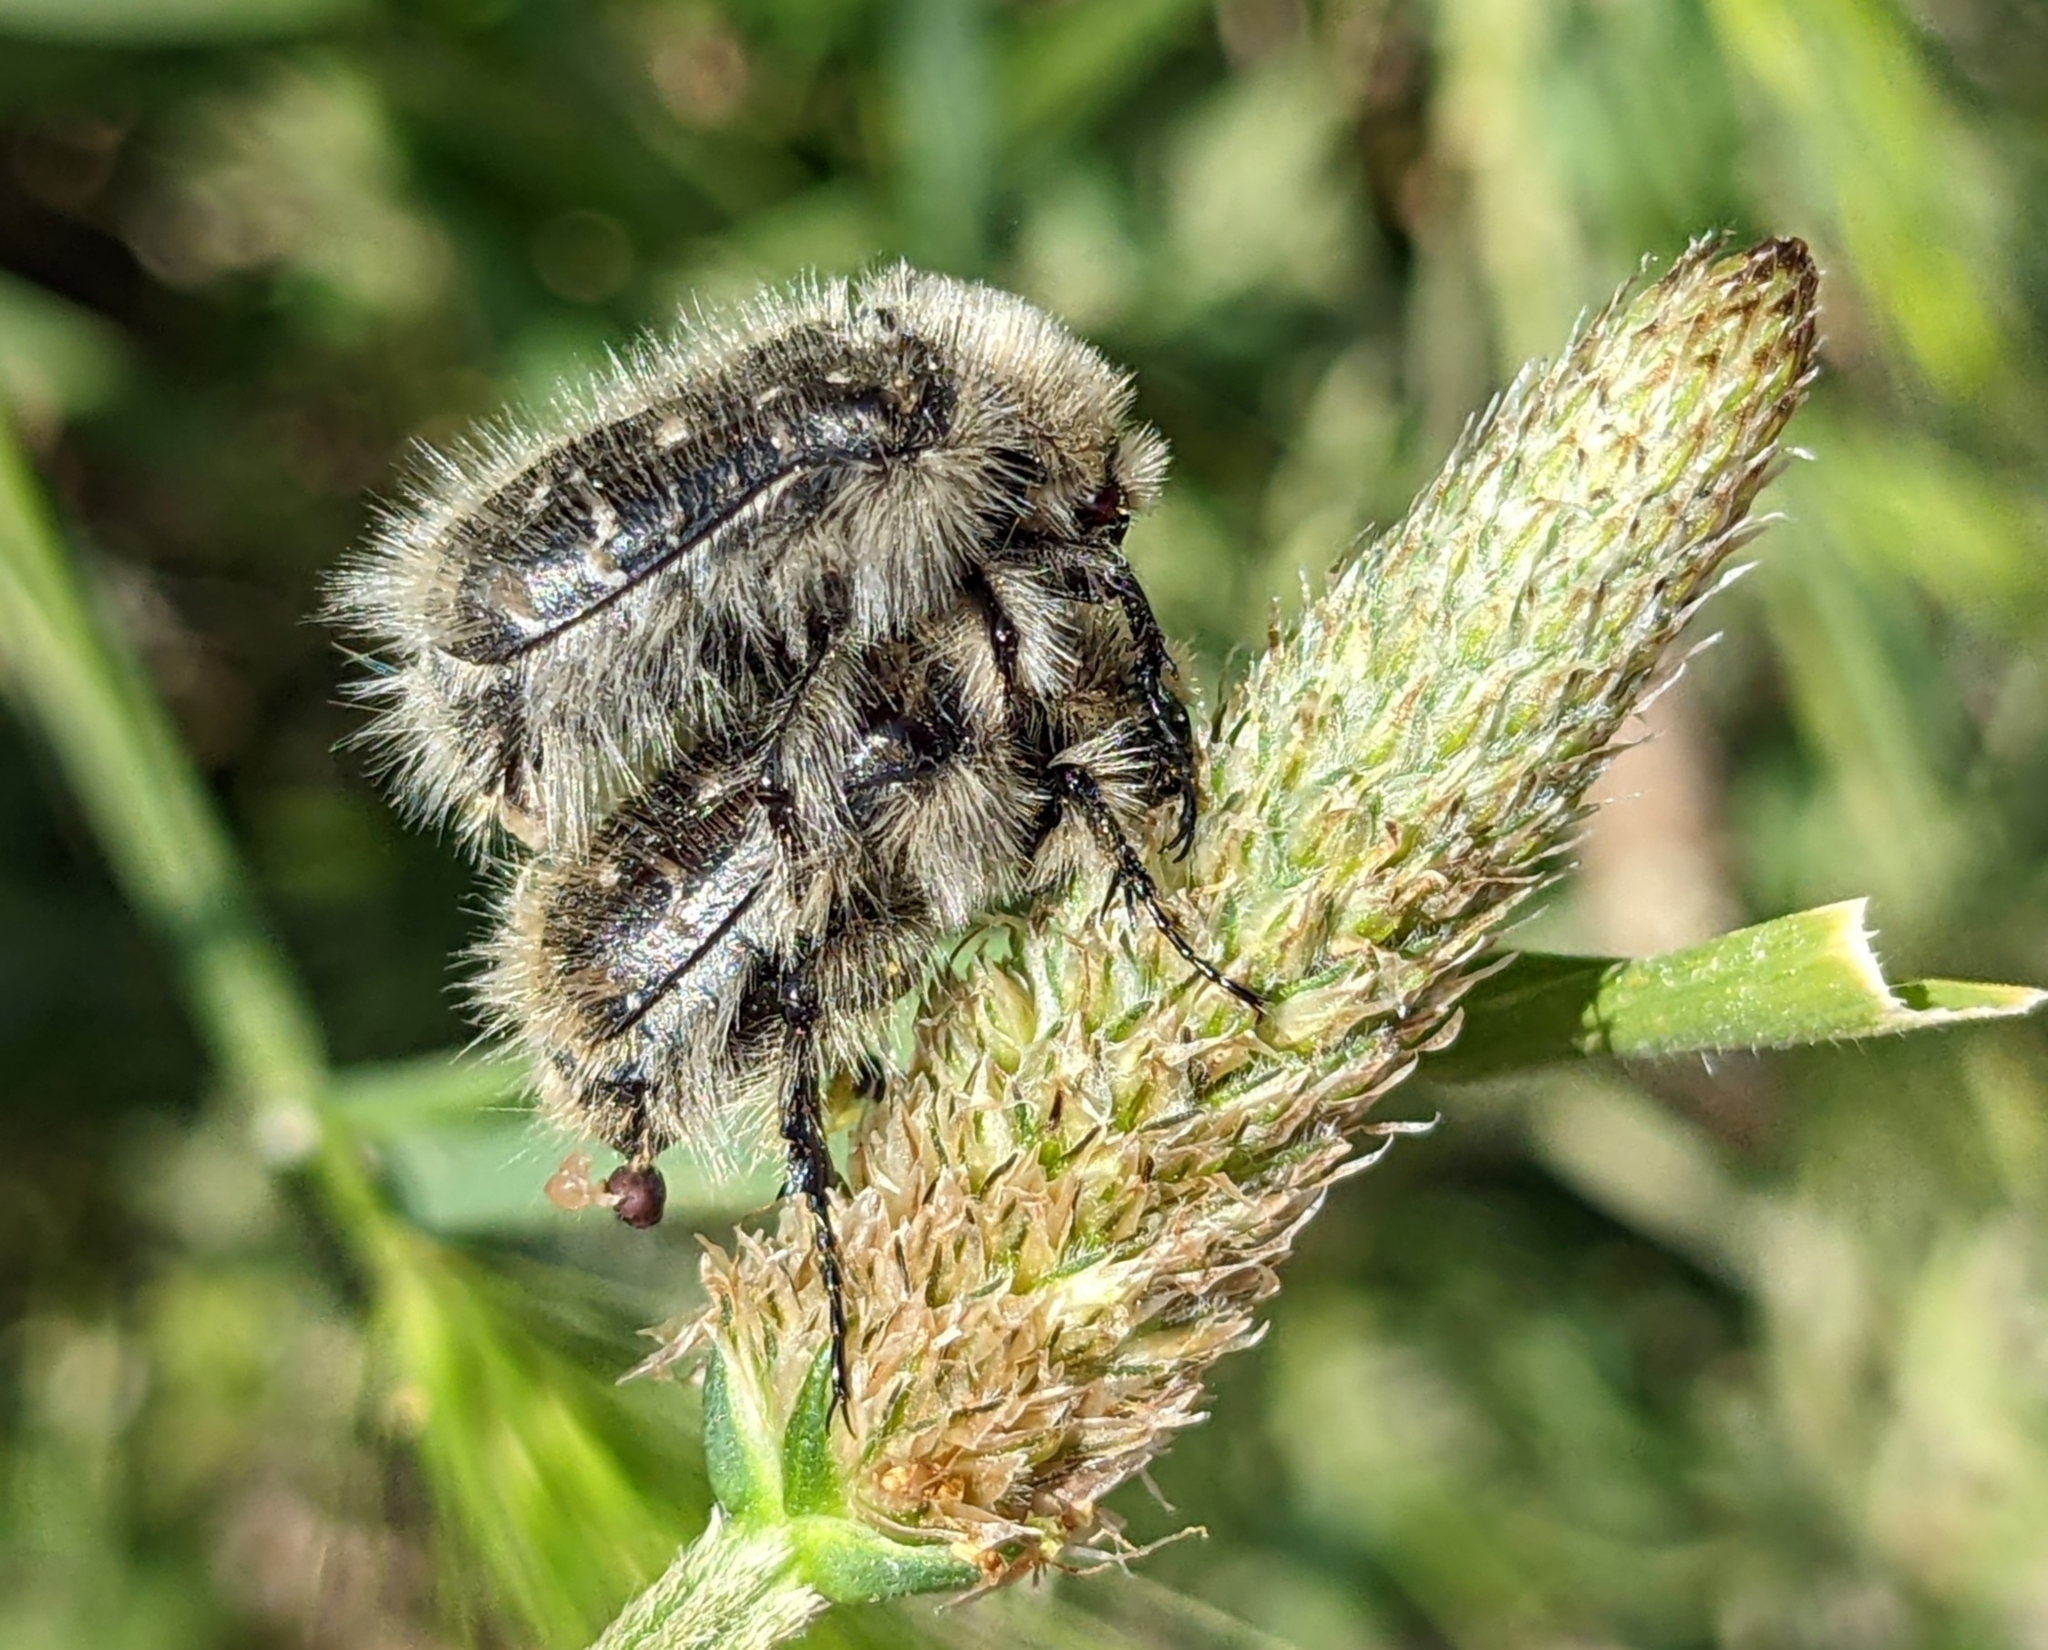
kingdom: Animalia
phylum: Arthropoda
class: Insecta
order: Coleoptera
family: Scarabaeidae
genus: Tropinota
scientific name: Tropinota squalida
